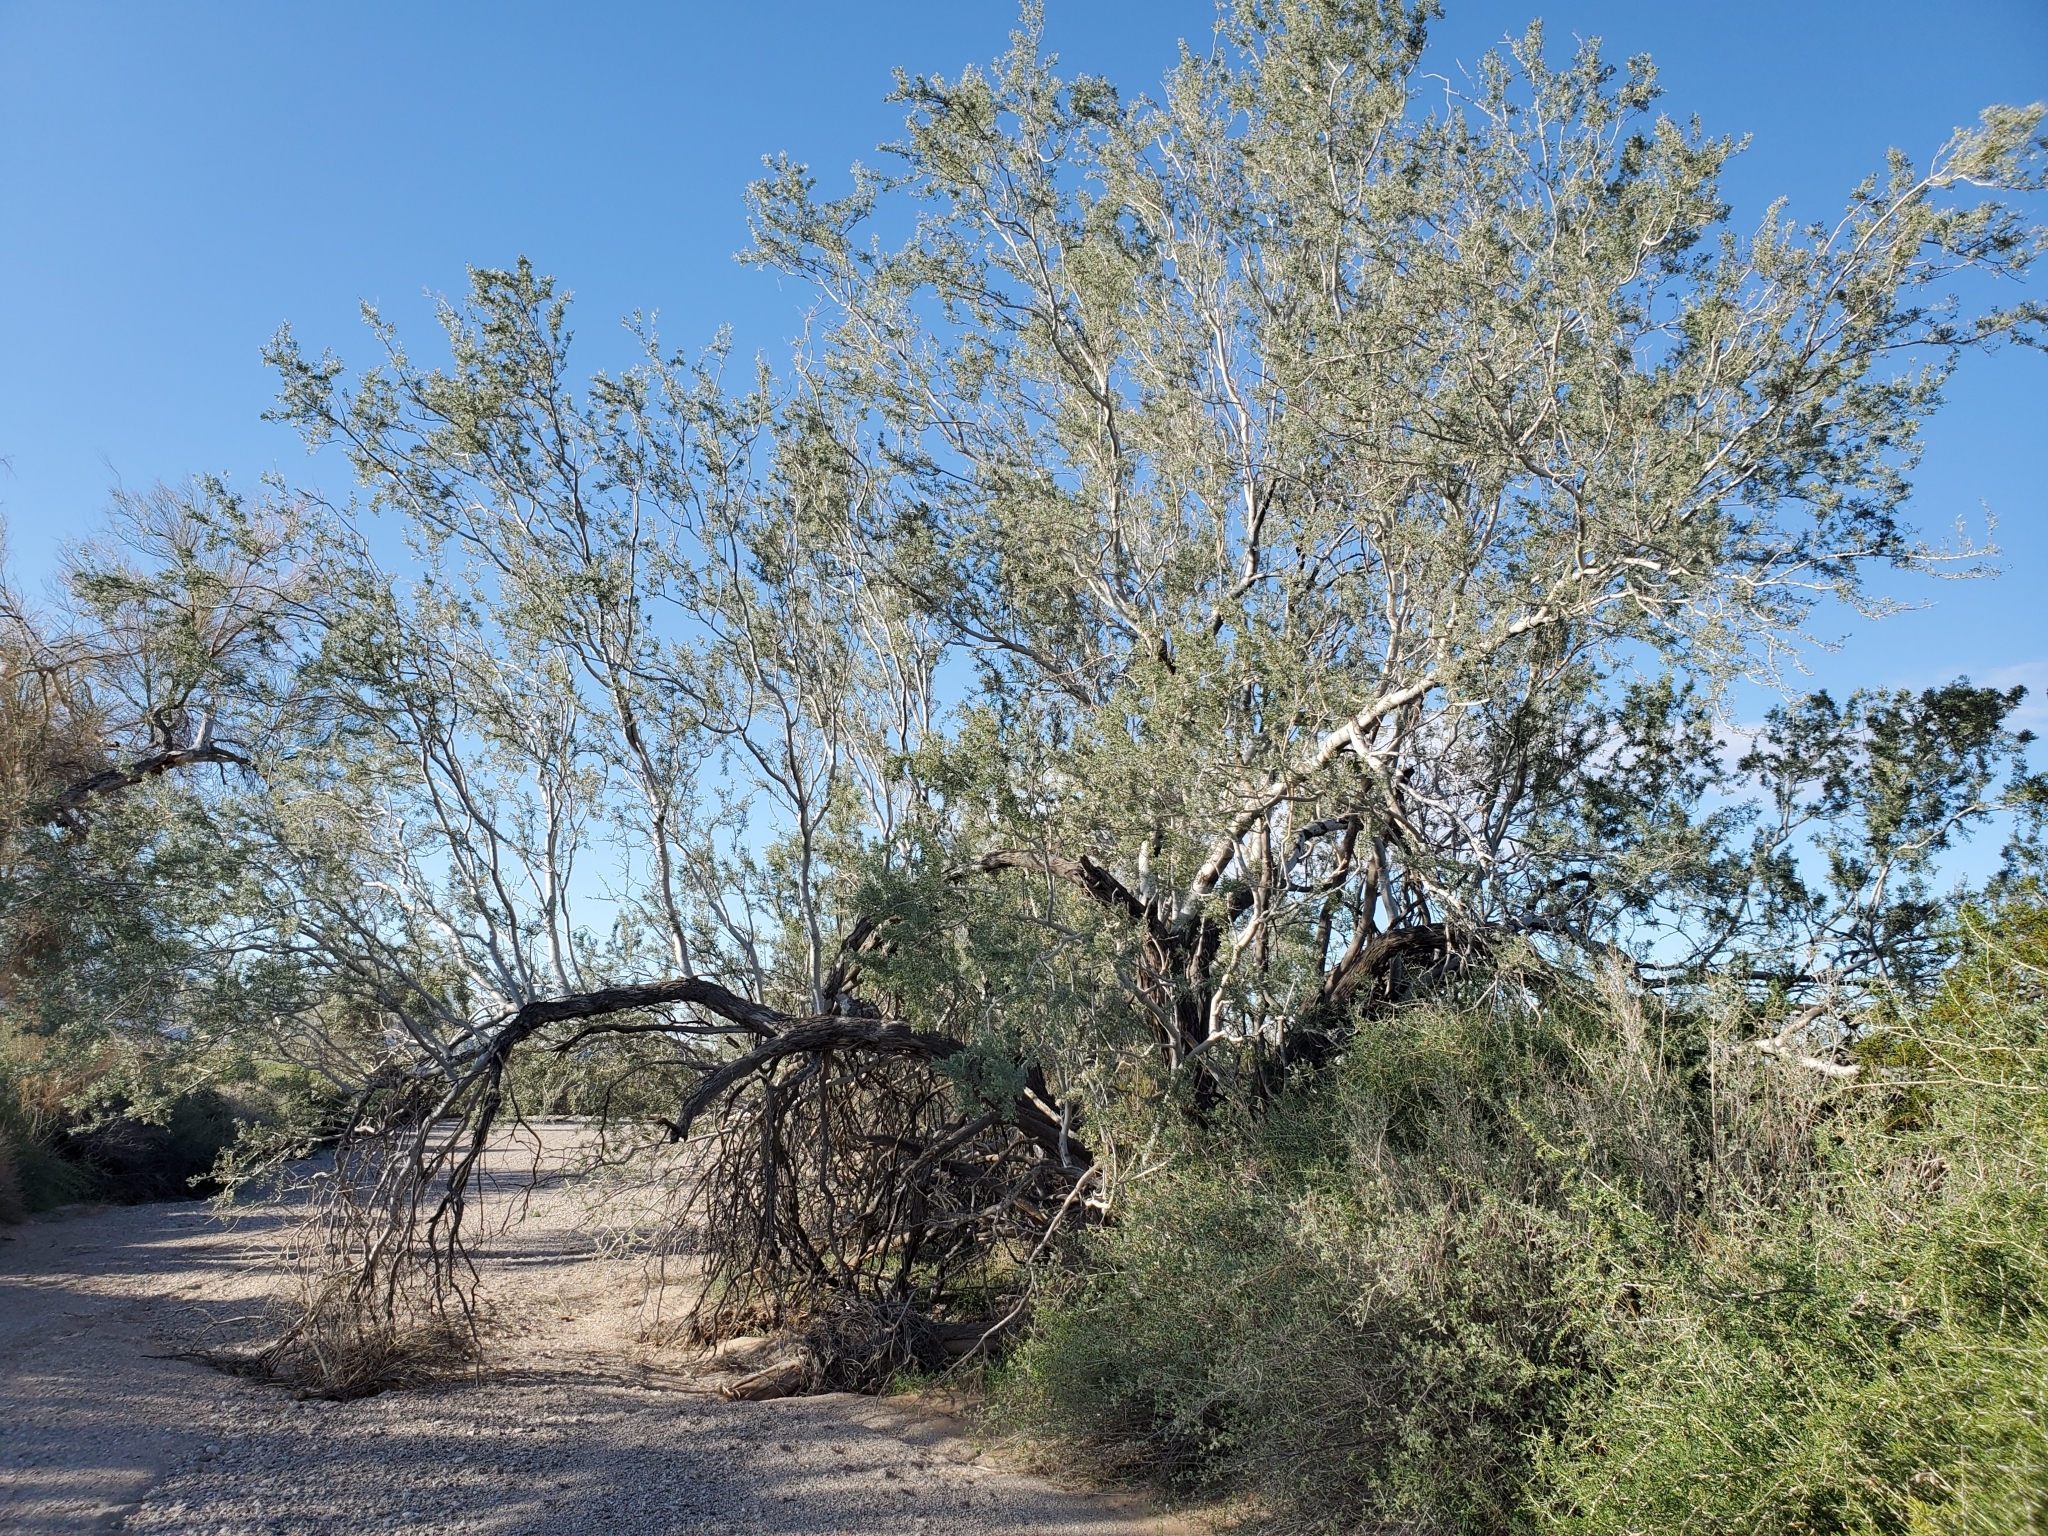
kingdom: Plantae
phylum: Tracheophyta
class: Magnoliopsida
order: Fabales
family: Fabaceae
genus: Olneya
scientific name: Olneya tesota
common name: Desert ironwood
